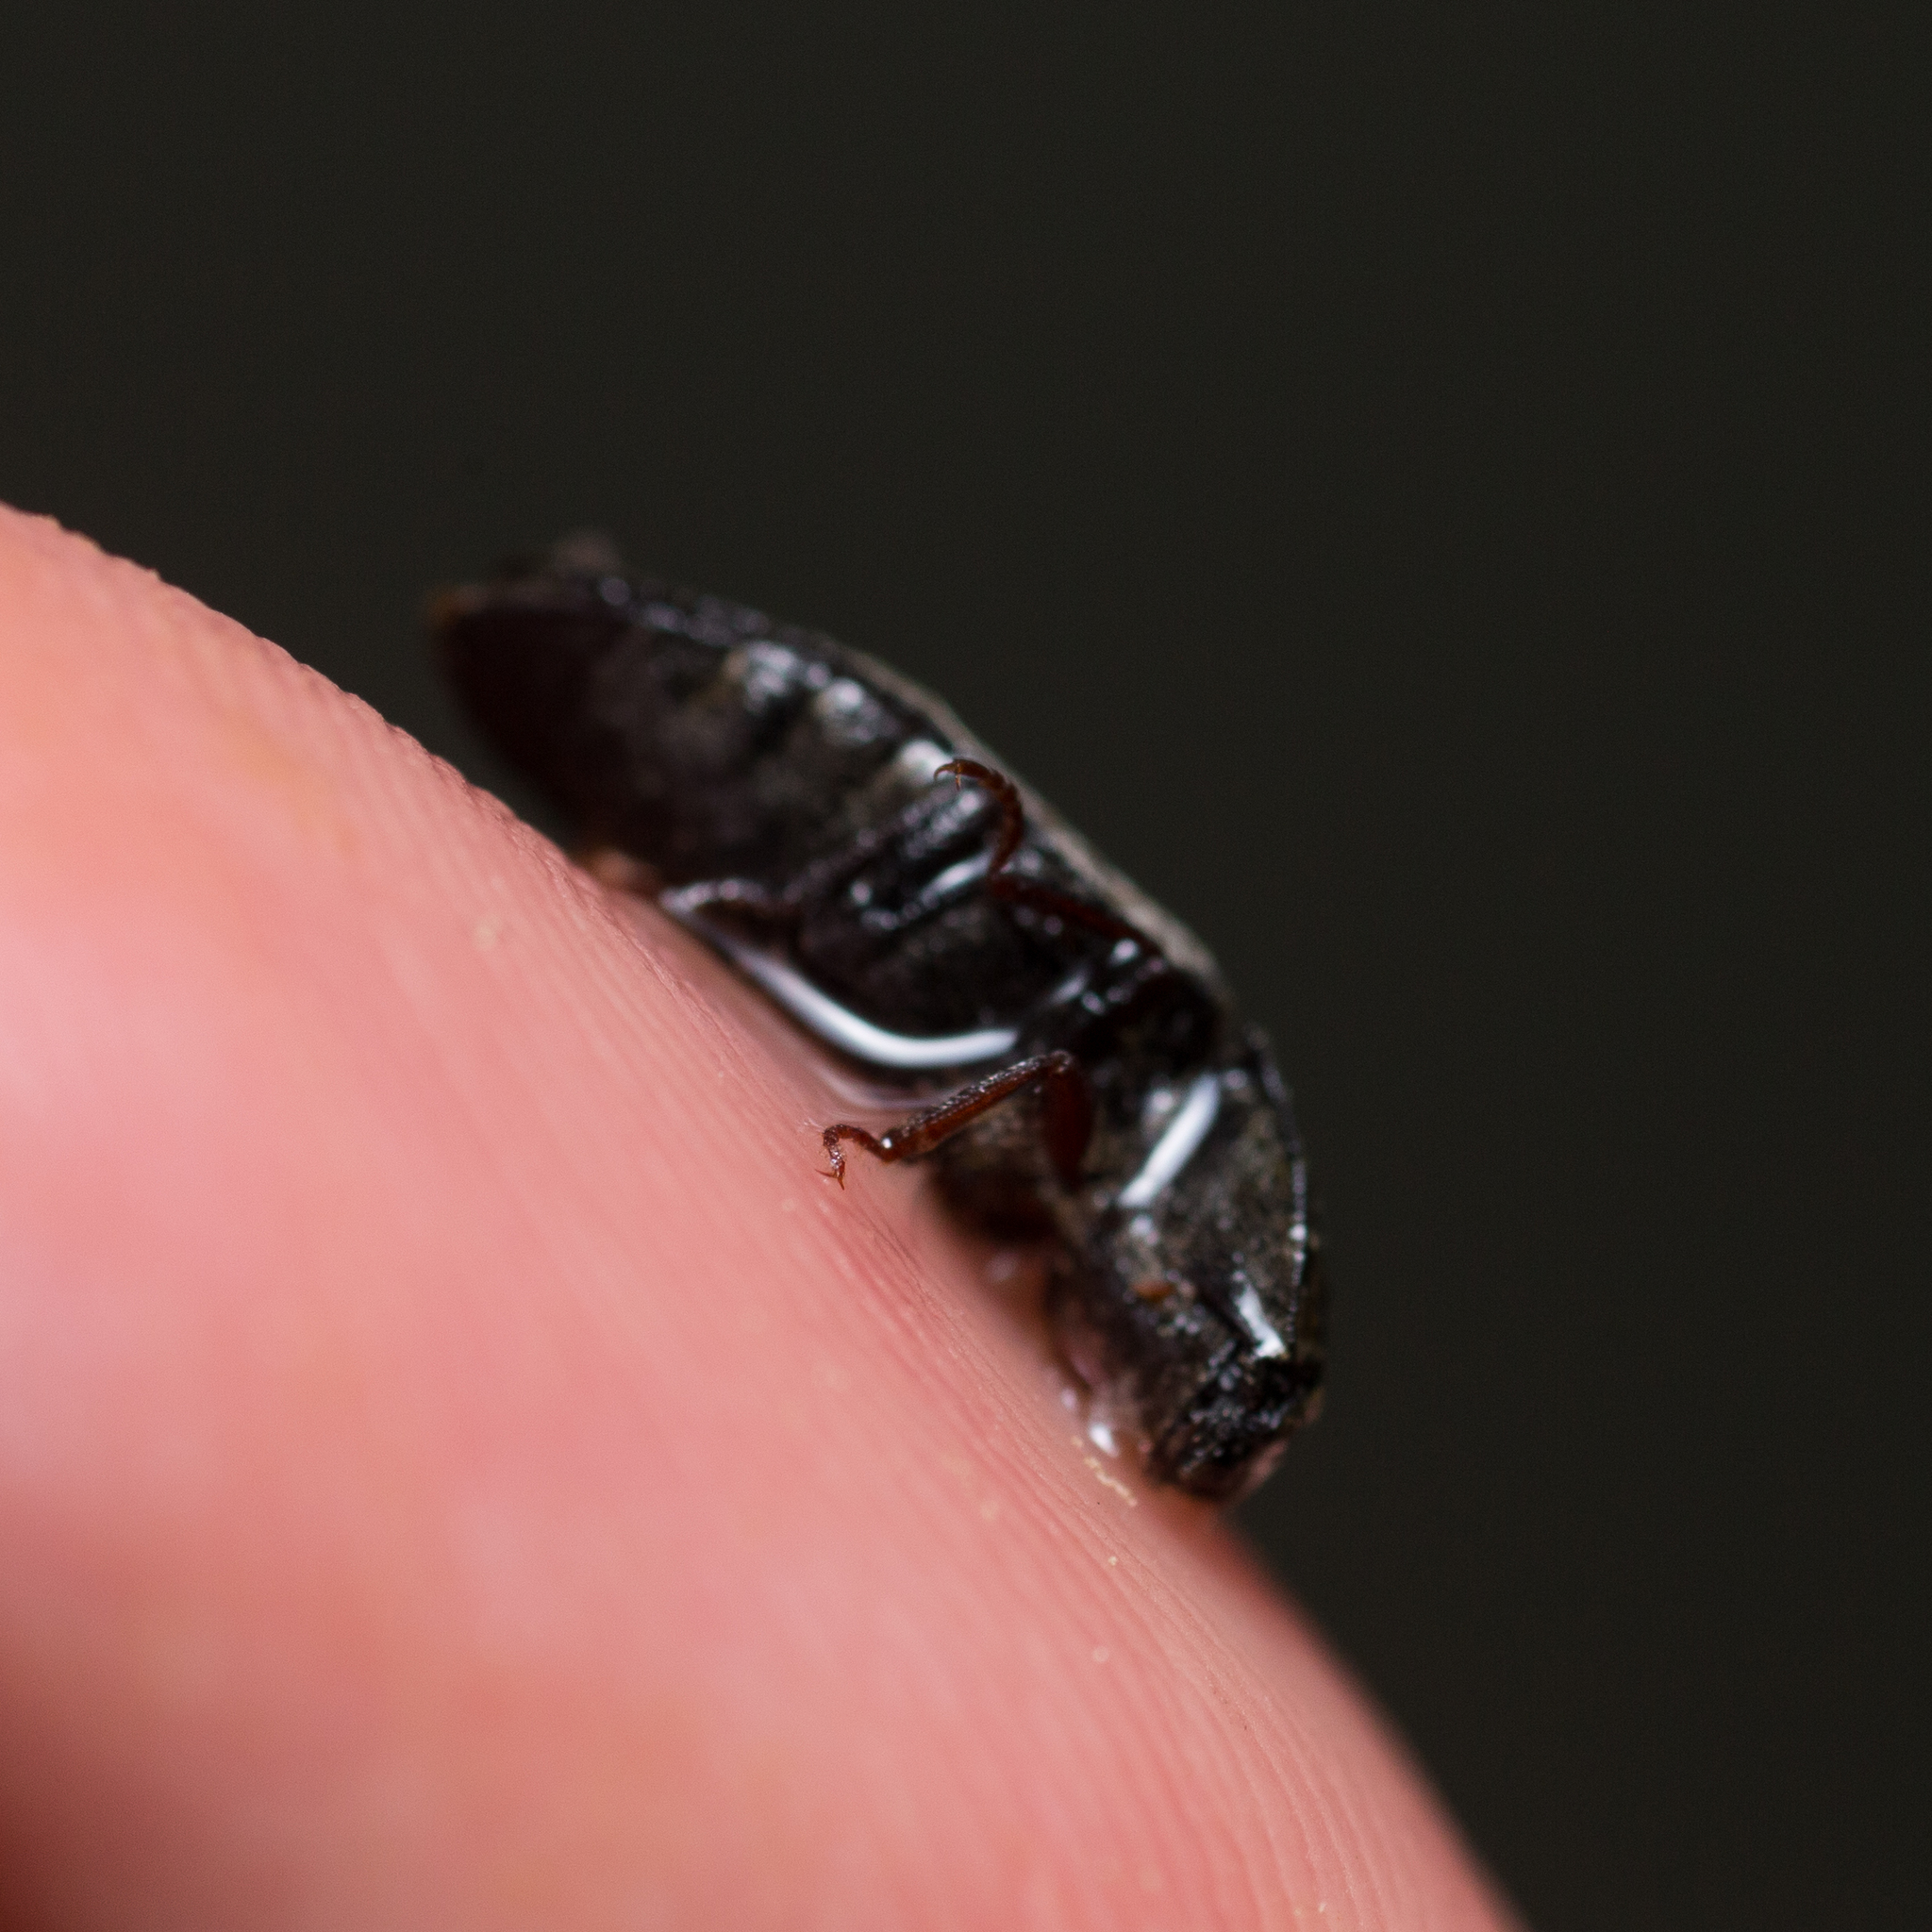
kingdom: Animalia
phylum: Arthropoda
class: Insecta
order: Coleoptera
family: Elateridae
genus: Agrypnus
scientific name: Agrypnus murinus
